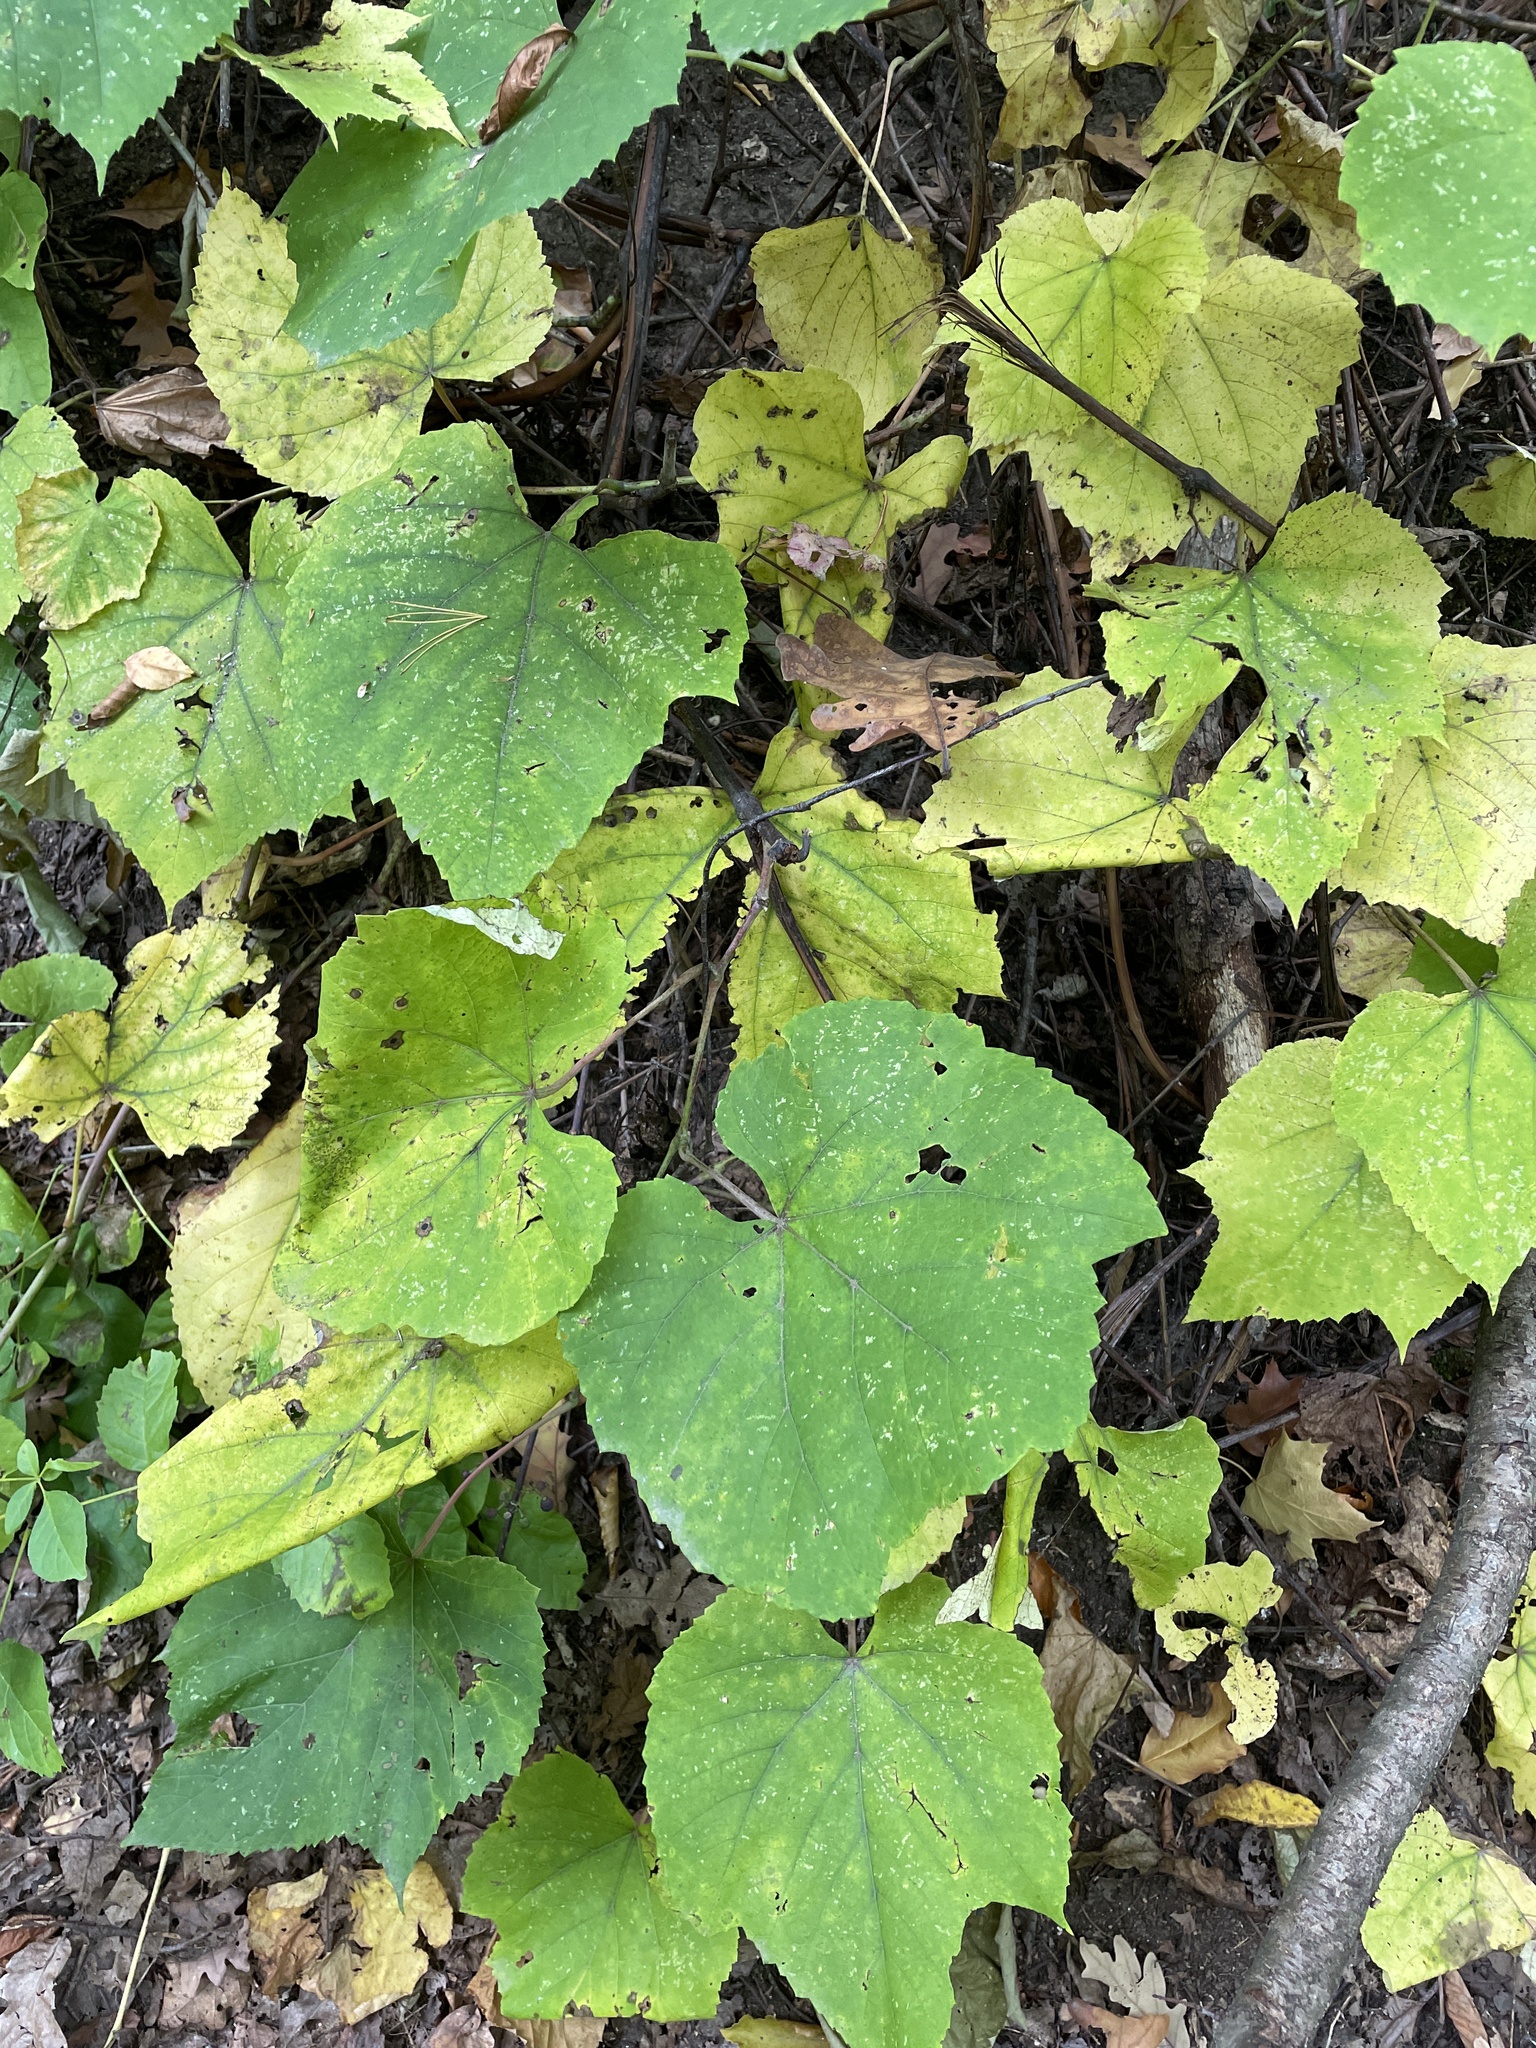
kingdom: Plantae
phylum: Tracheophyta
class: Magnoliopsida
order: Vitales
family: Vitaceae
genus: Vitis
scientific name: Vitis aestivalis
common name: Pigeon grape
